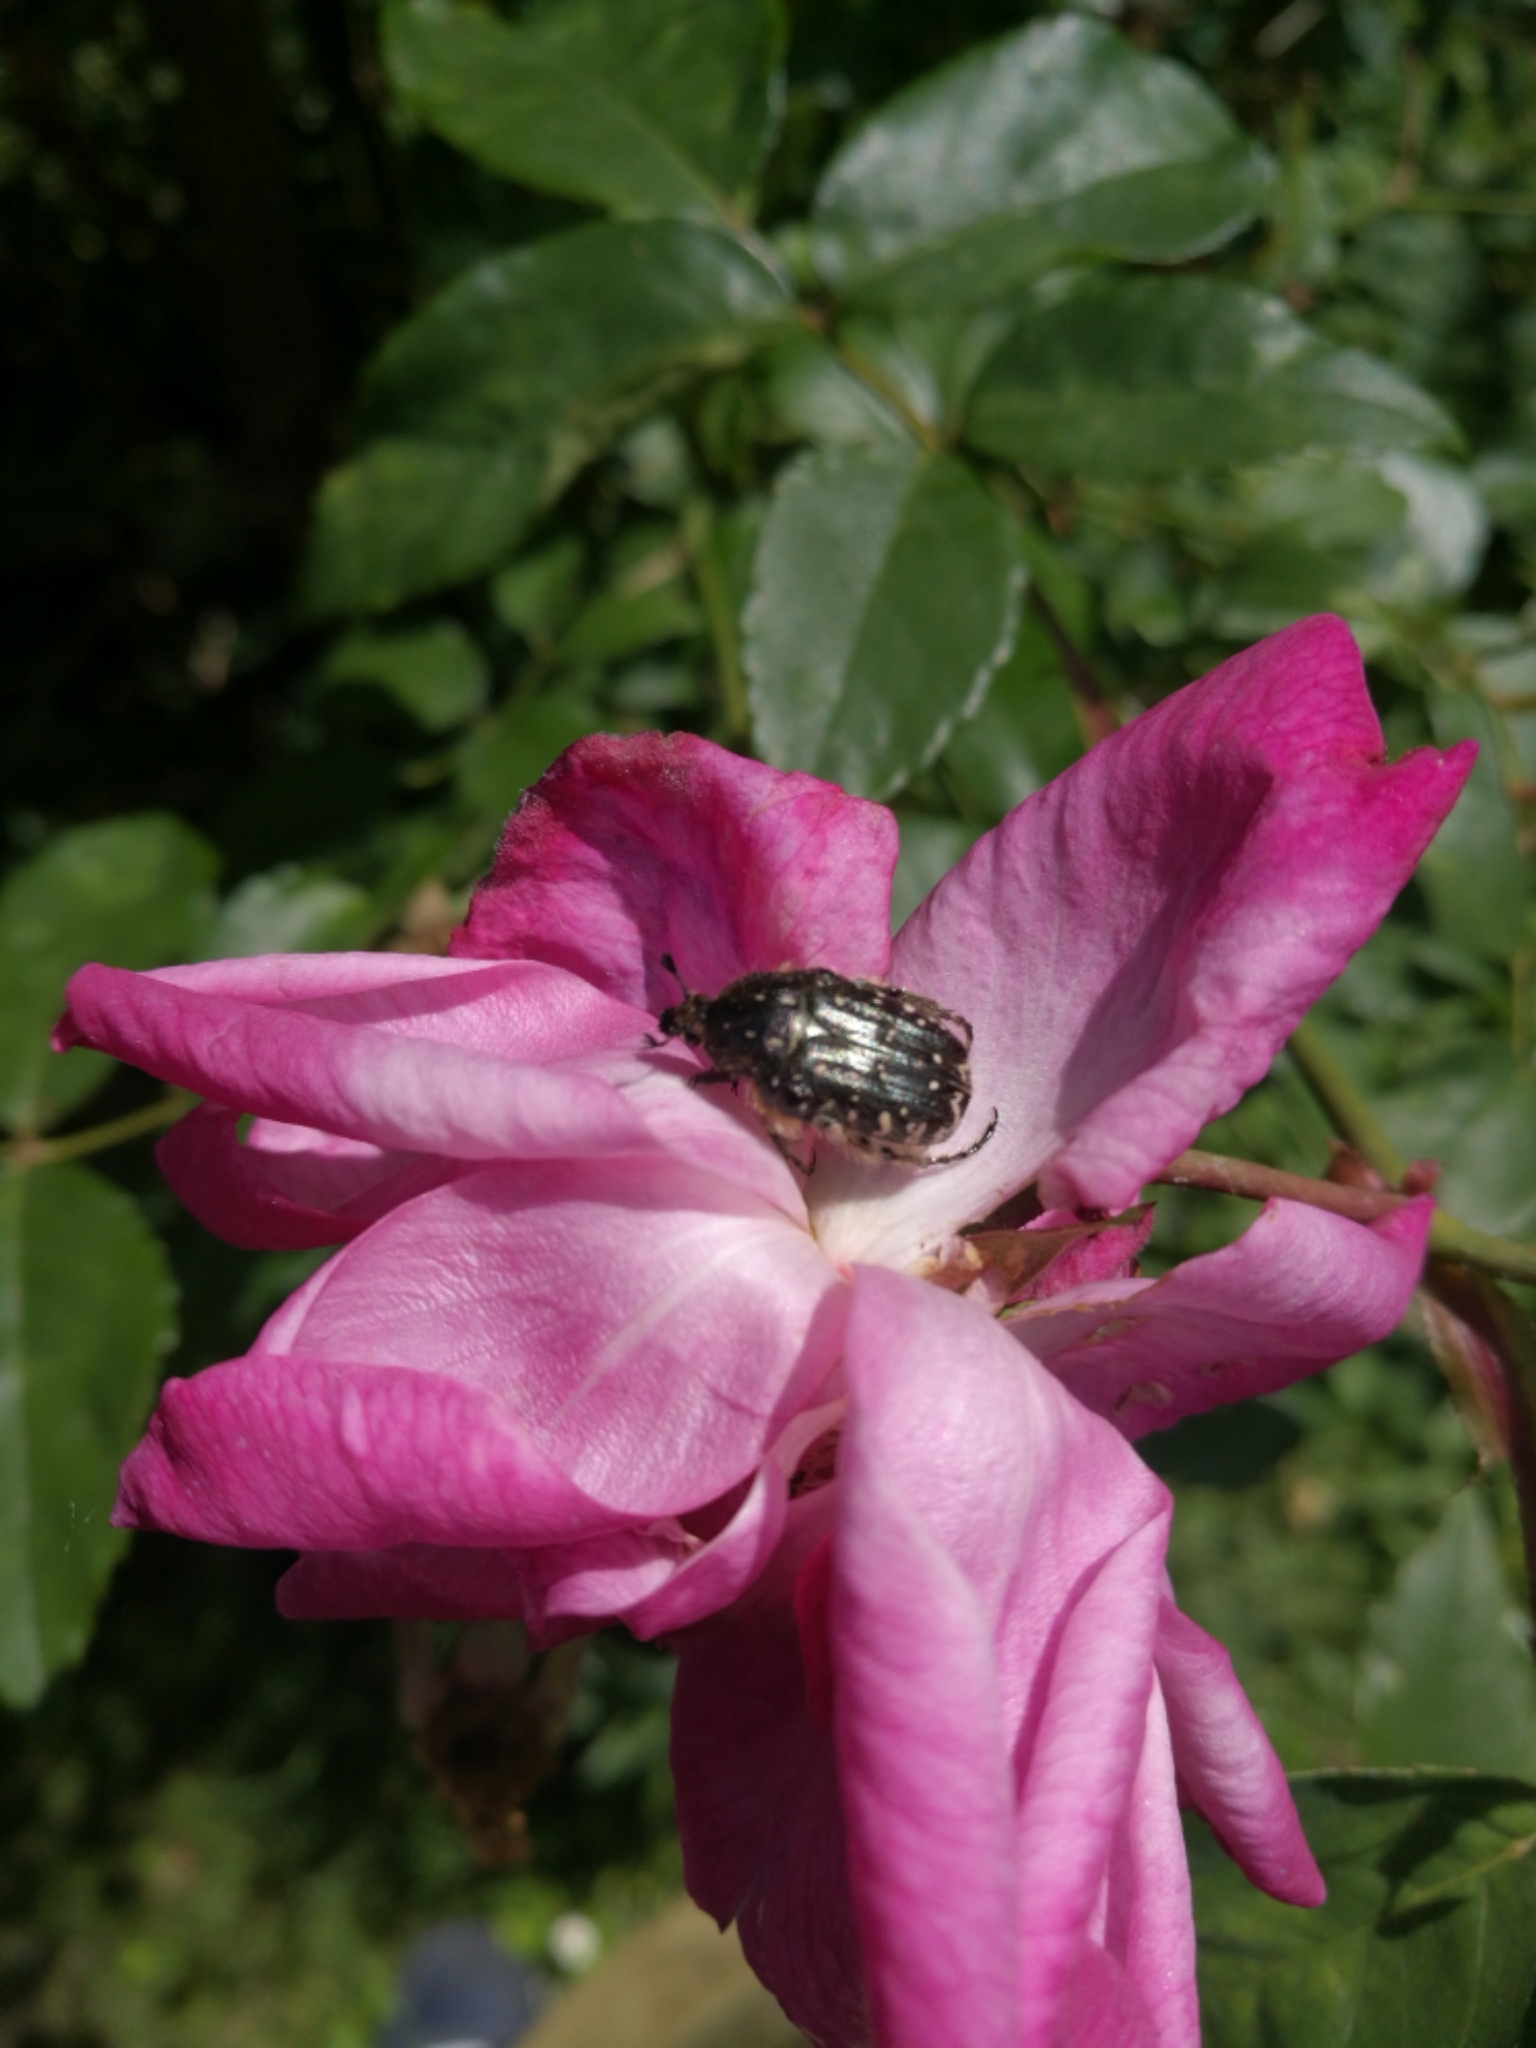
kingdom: Animalia
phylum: Arthropoda
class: Insecta
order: Coleoptera
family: Scarabaeidae
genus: Oxythyrea
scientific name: Oxythyrea funesta
